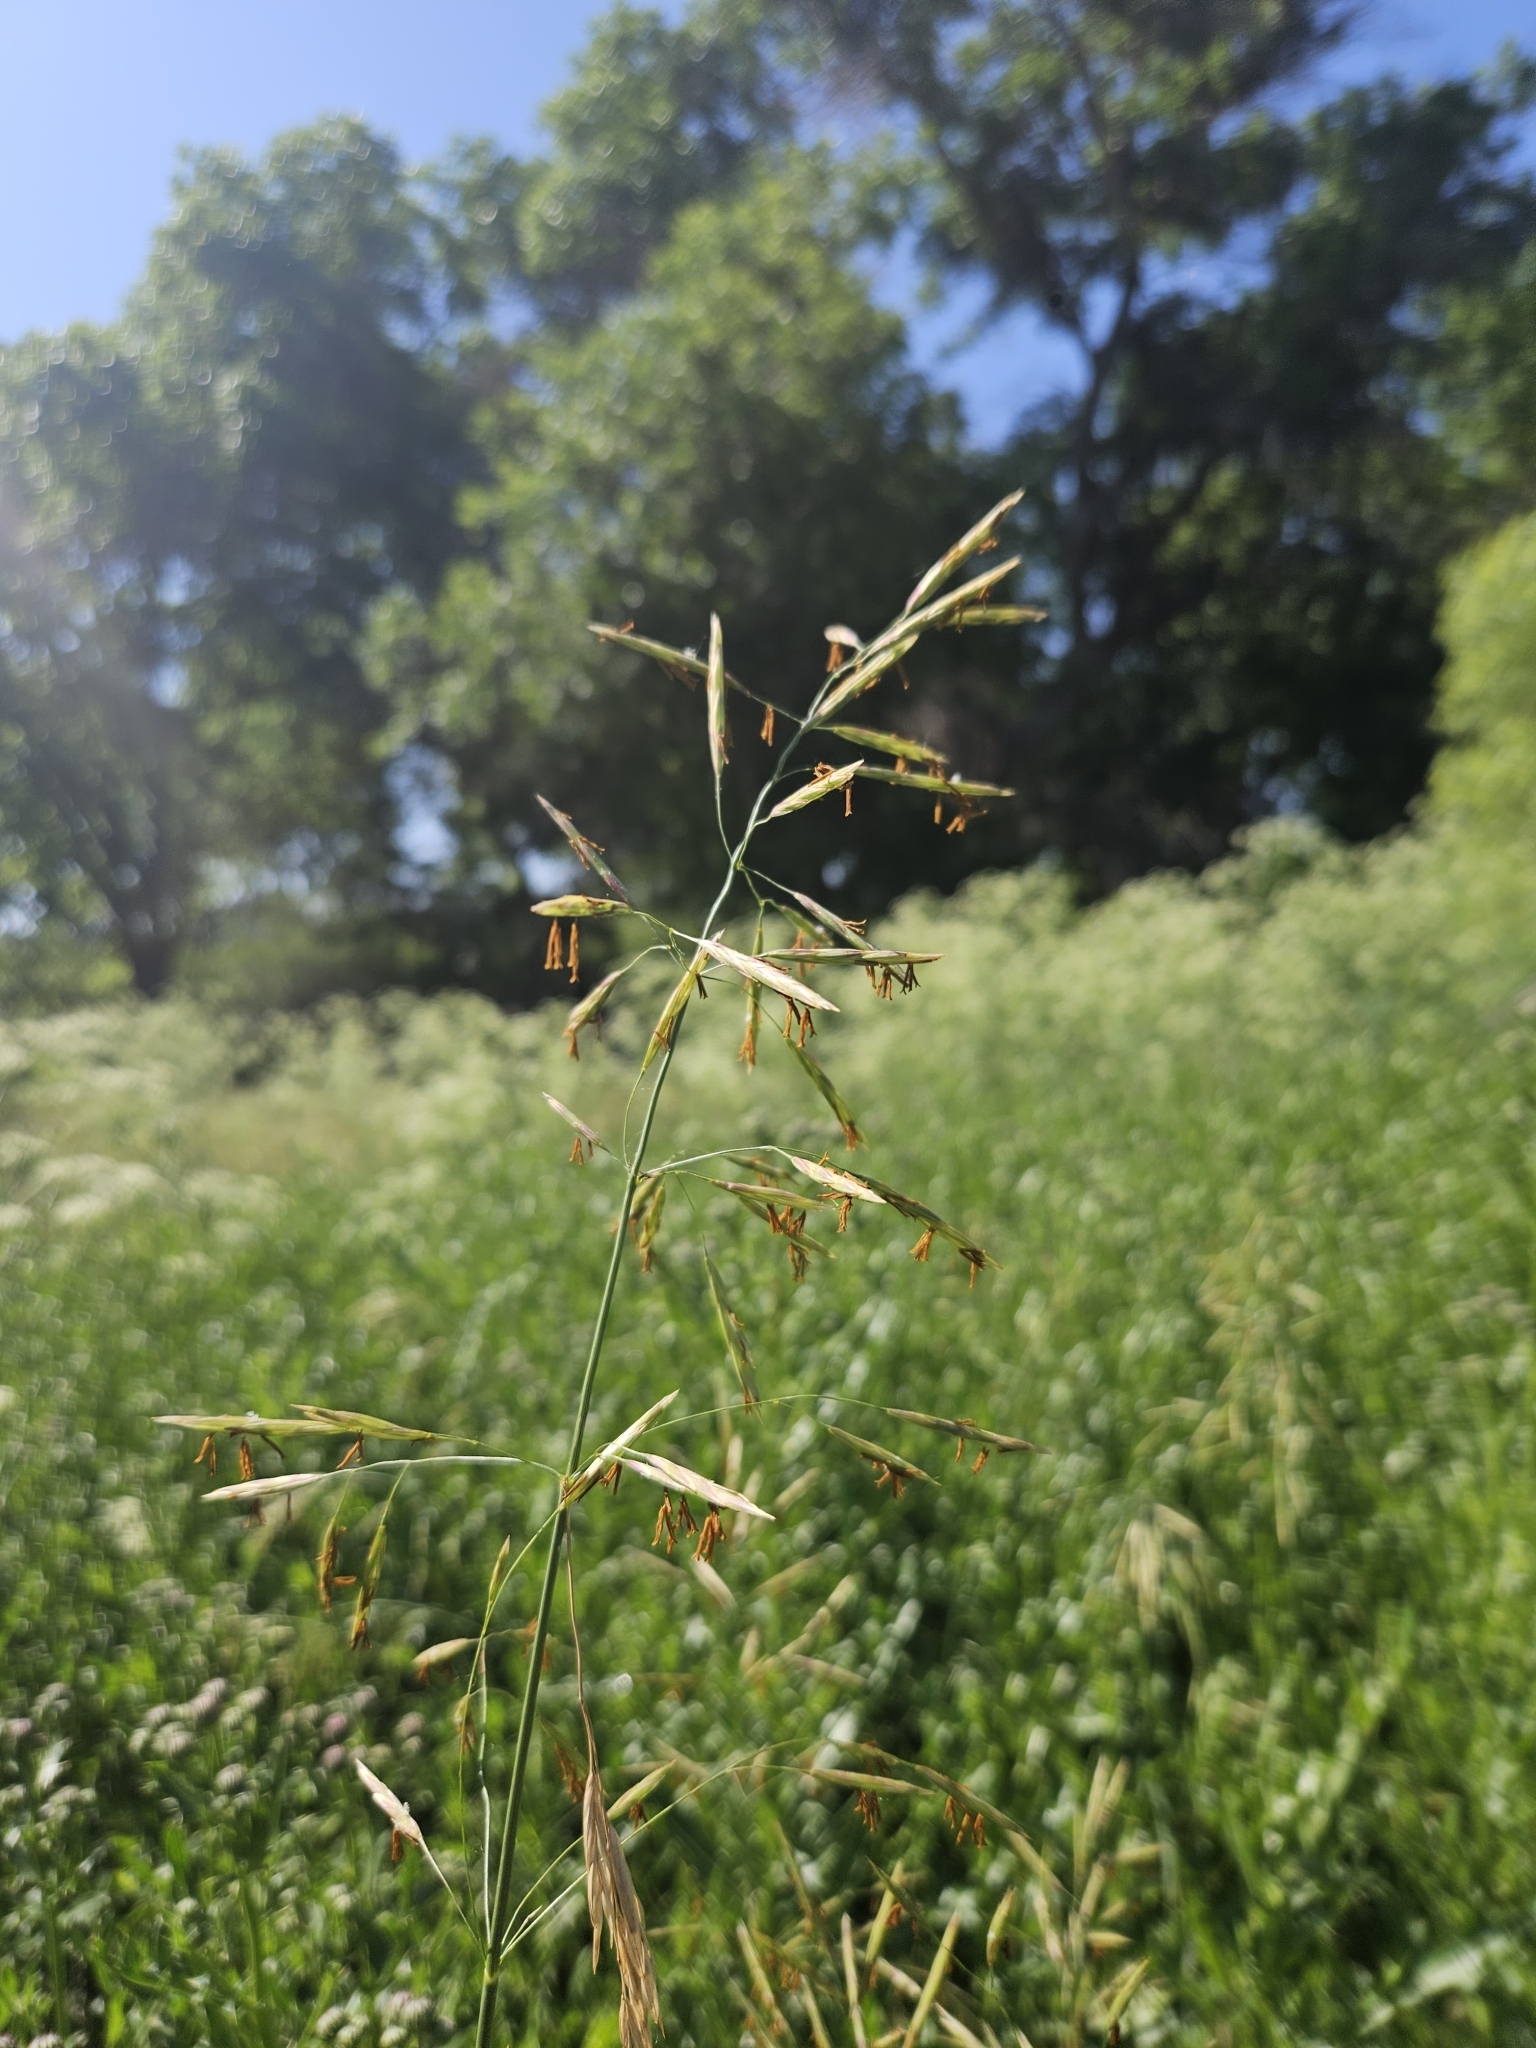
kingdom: Plantae
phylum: Tracheophyta
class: Liliopsida
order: Poales
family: Poaceae
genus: Bromus
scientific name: Bromus inermis
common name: Smooth brome
